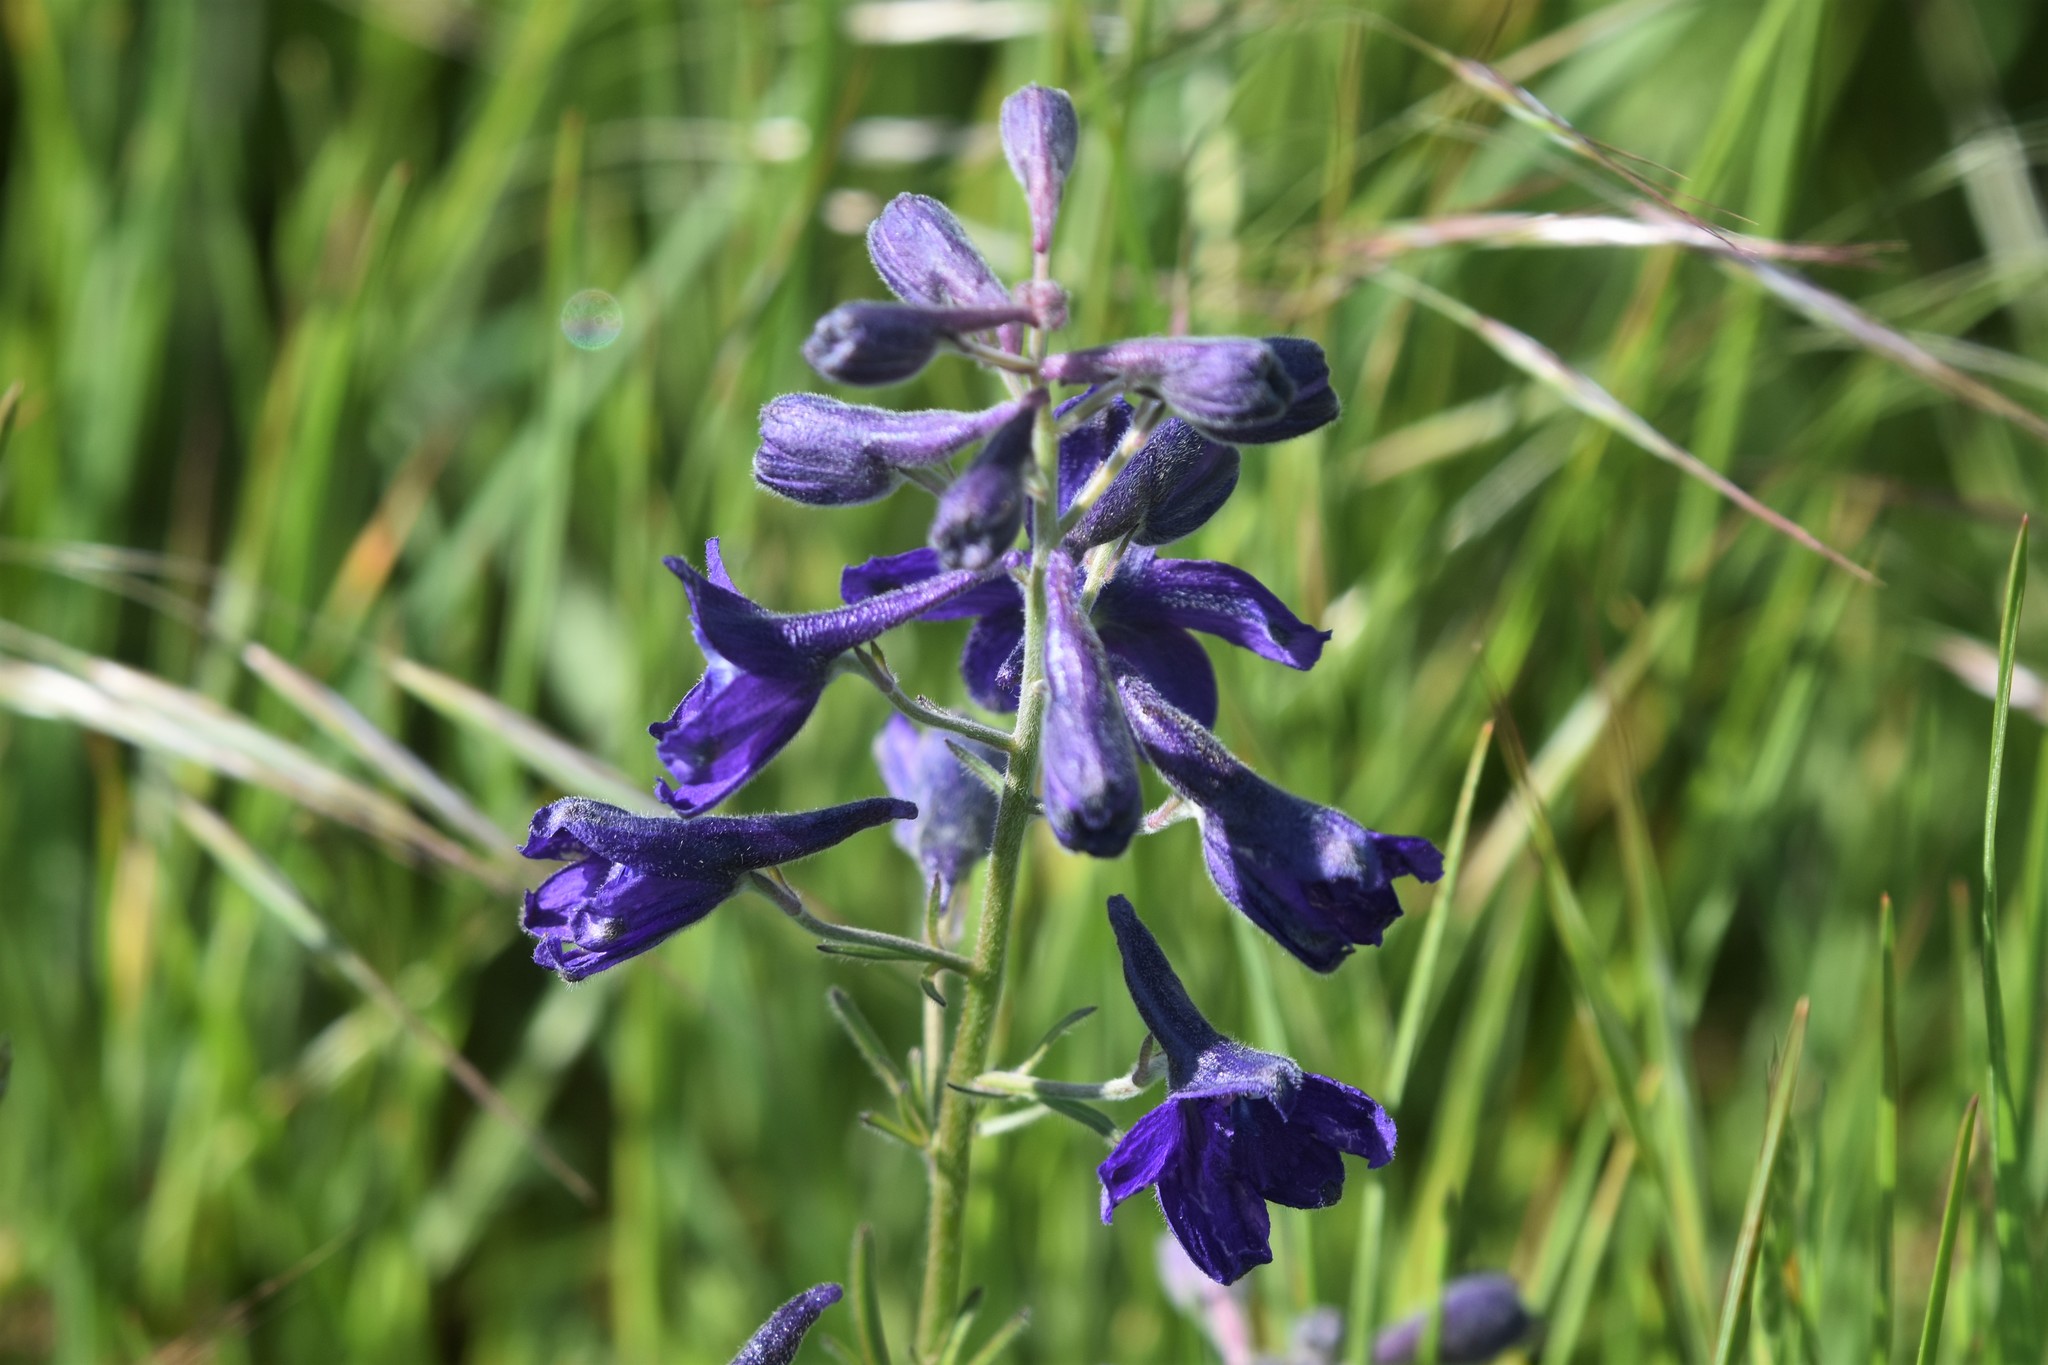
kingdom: Plantae
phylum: Tracheophyta
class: Magnoliopsida
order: Ranunculales
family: Ranunculaceae
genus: Delphinium
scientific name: Delphinium menziesii
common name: Menzies's larkspur
